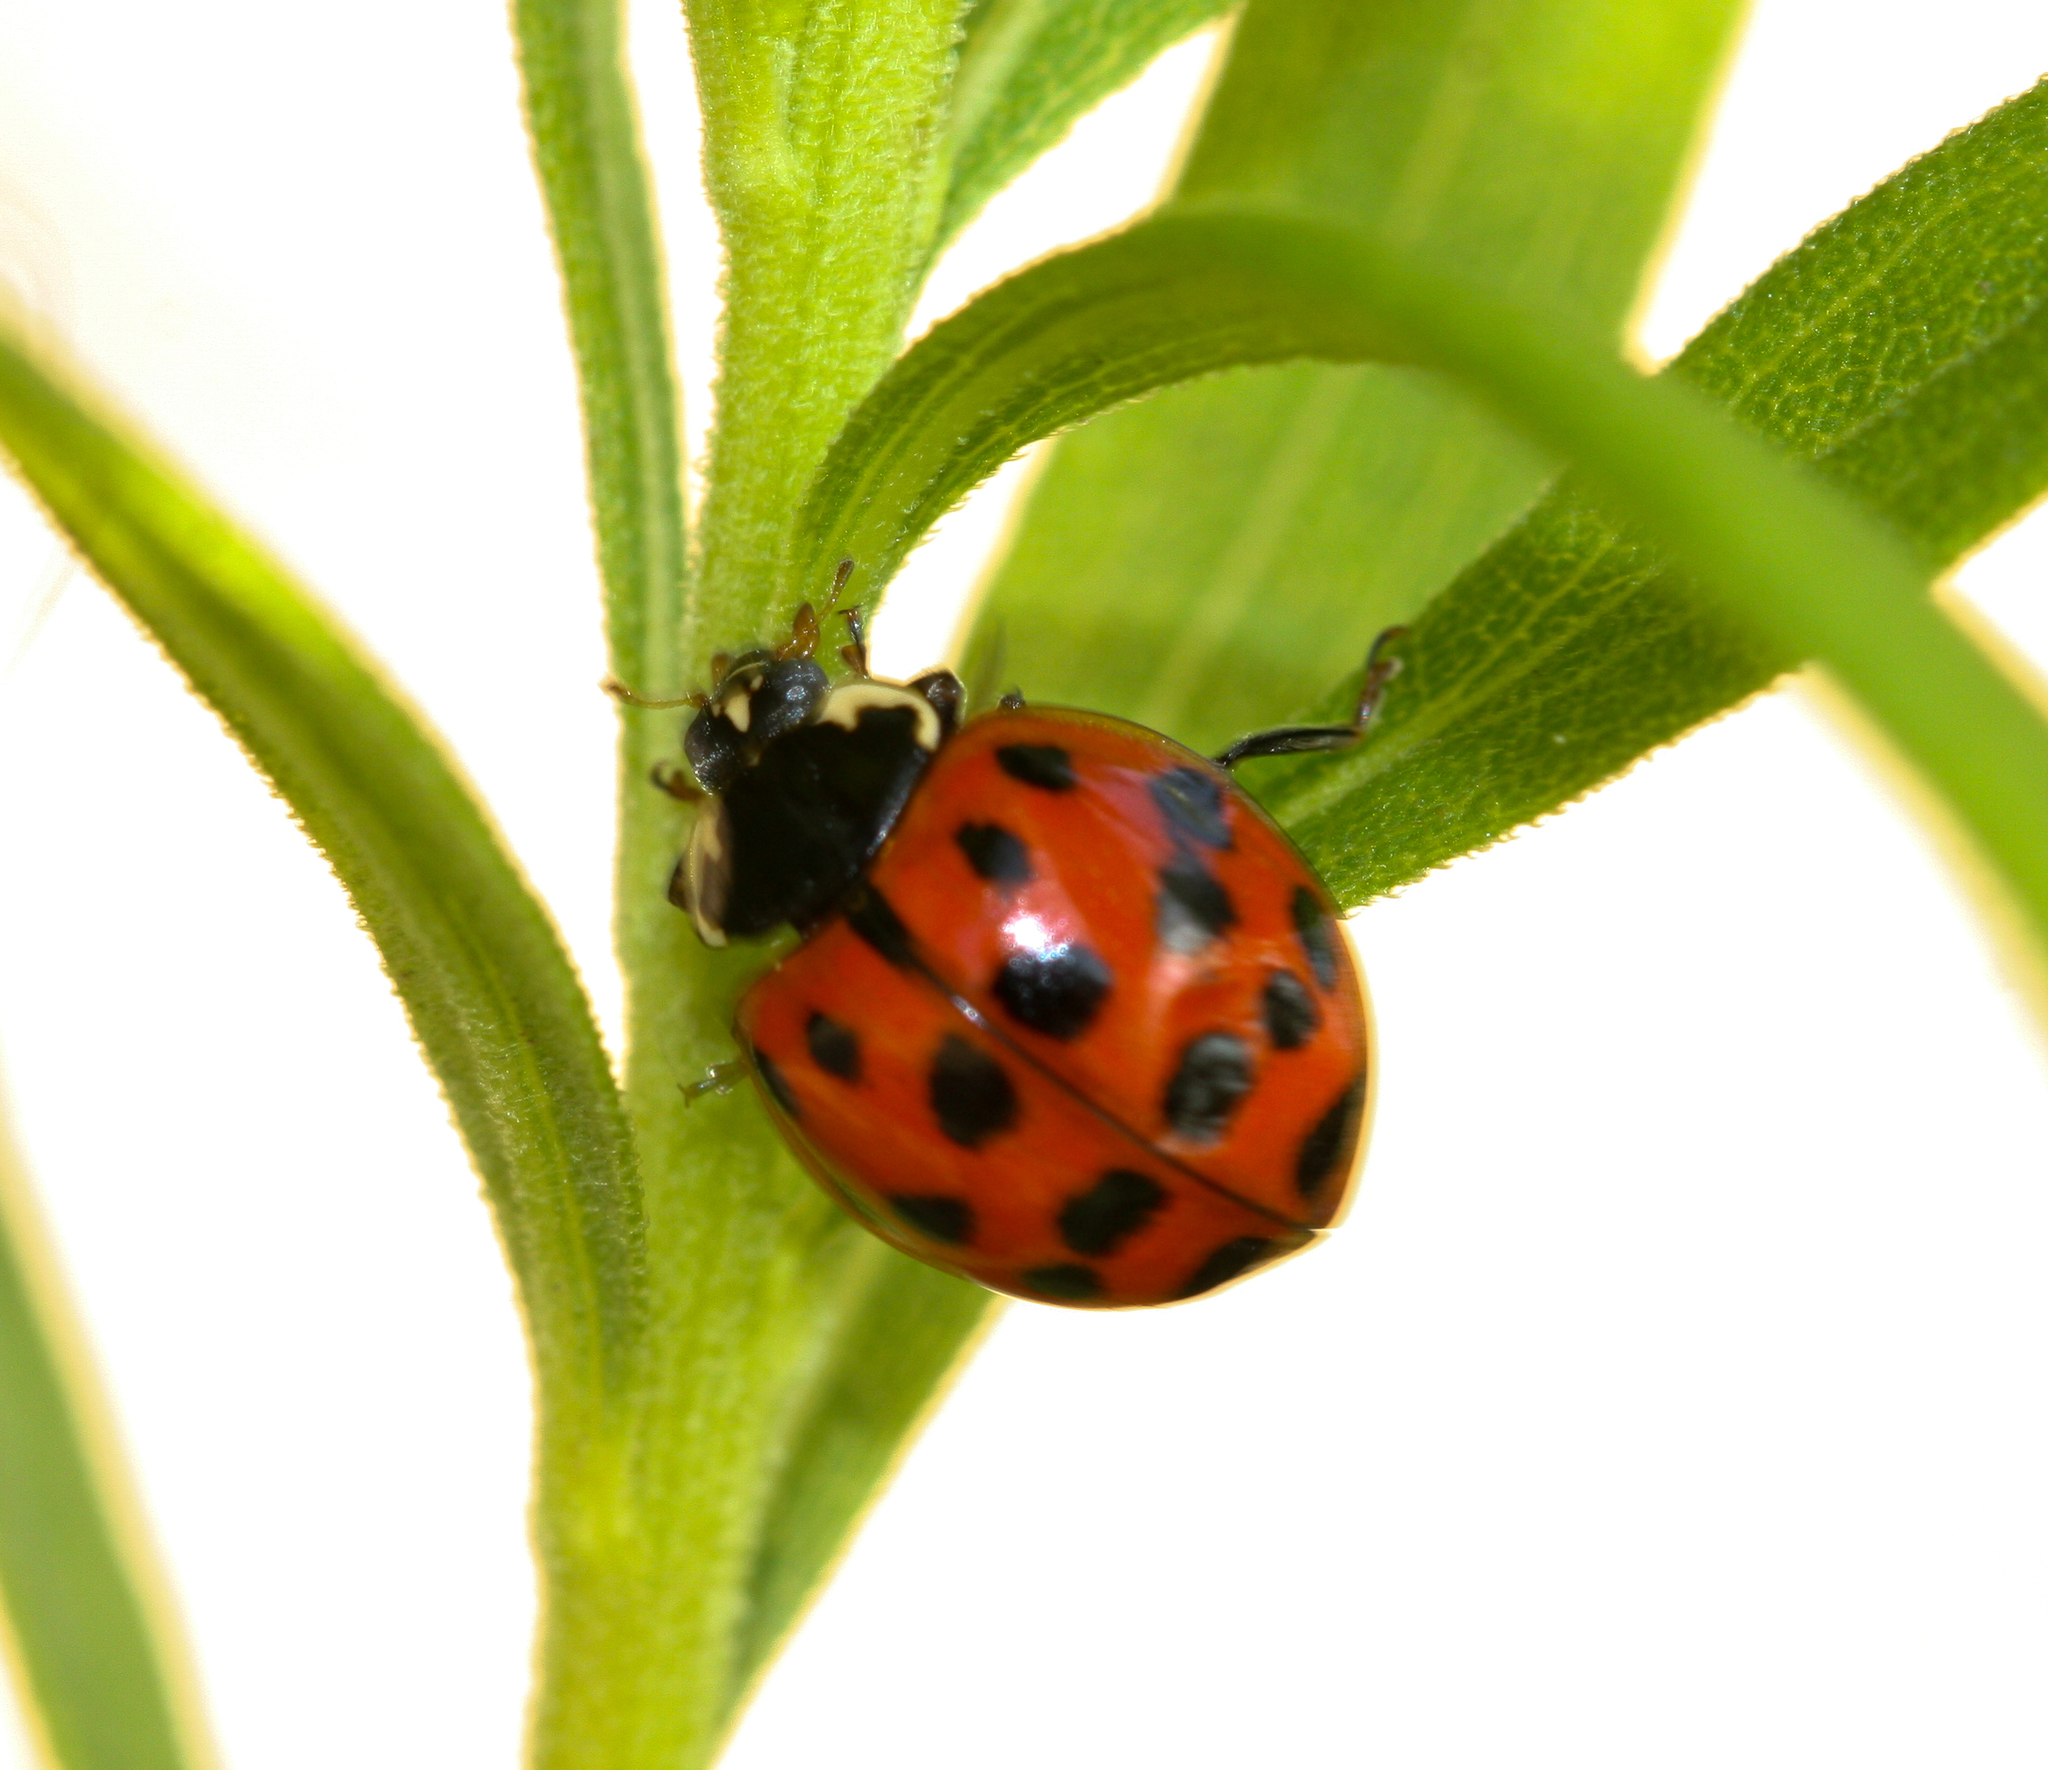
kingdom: Animalia
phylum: Arthropoda
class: Insecta
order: Coleoptera
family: Coccinellidae
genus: Harmonia
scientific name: Harmonia axyridis
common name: Harlequin ladybird
